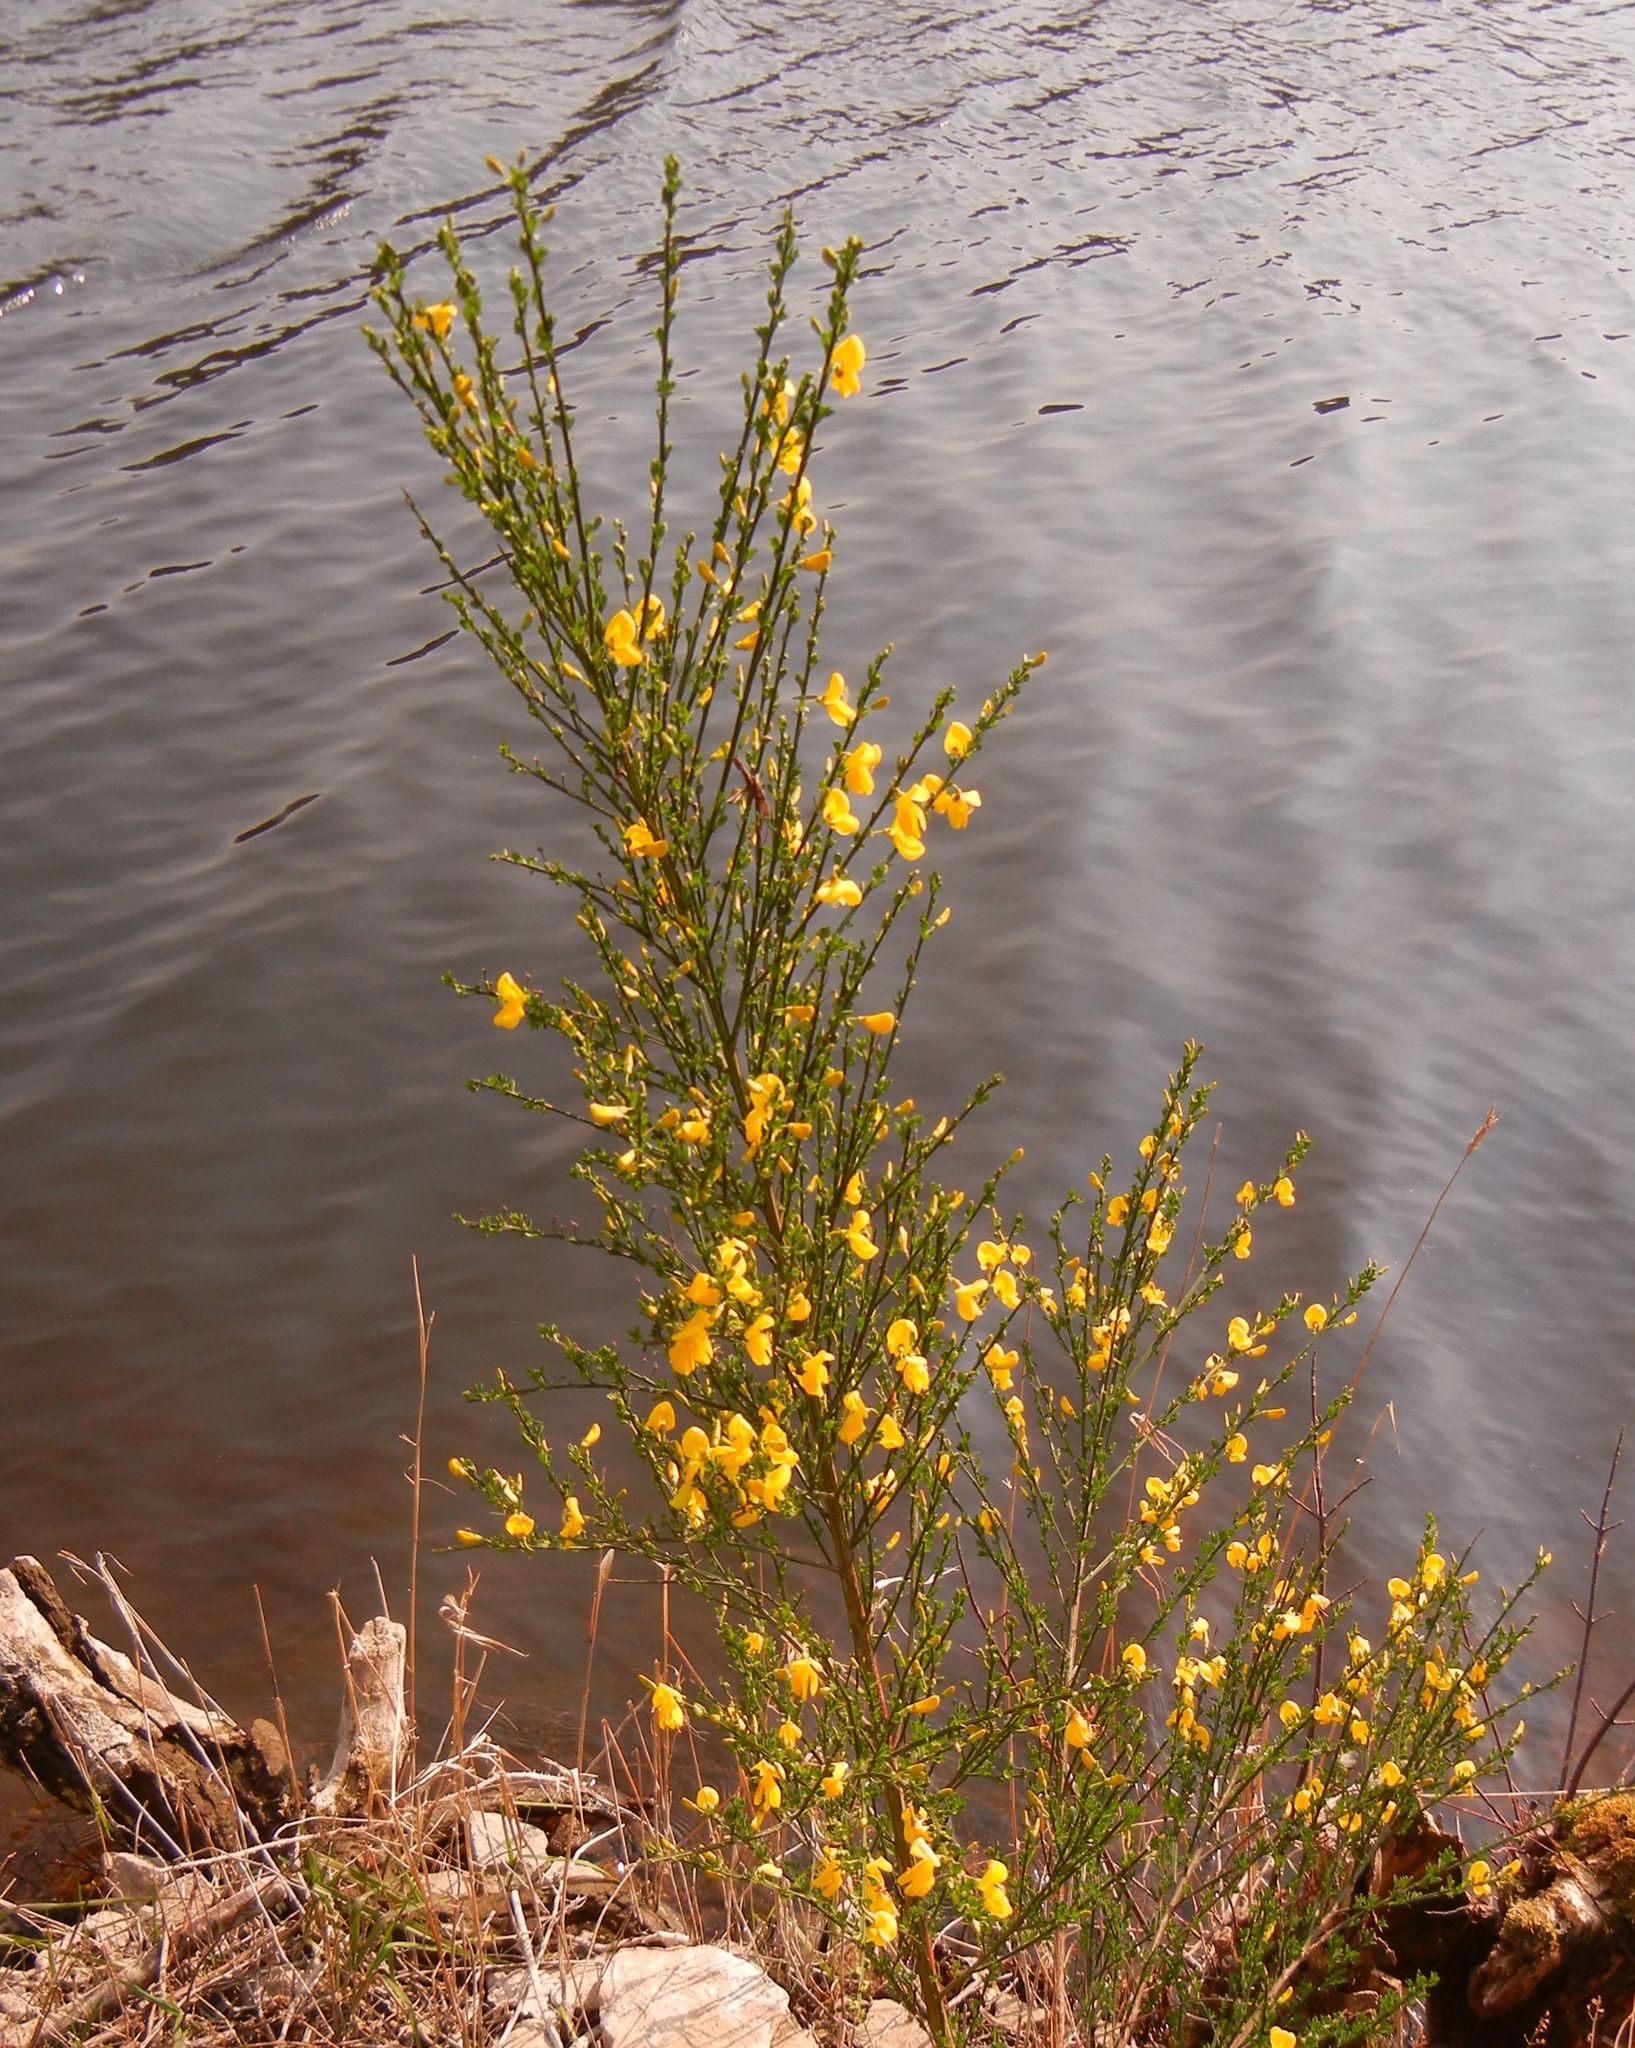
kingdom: Plantae
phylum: Tracheophyta
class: Magnoliopsida
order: Fabales
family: Fabaceae
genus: Cytisus
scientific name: Cytisus scoparius
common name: Scotch broom
